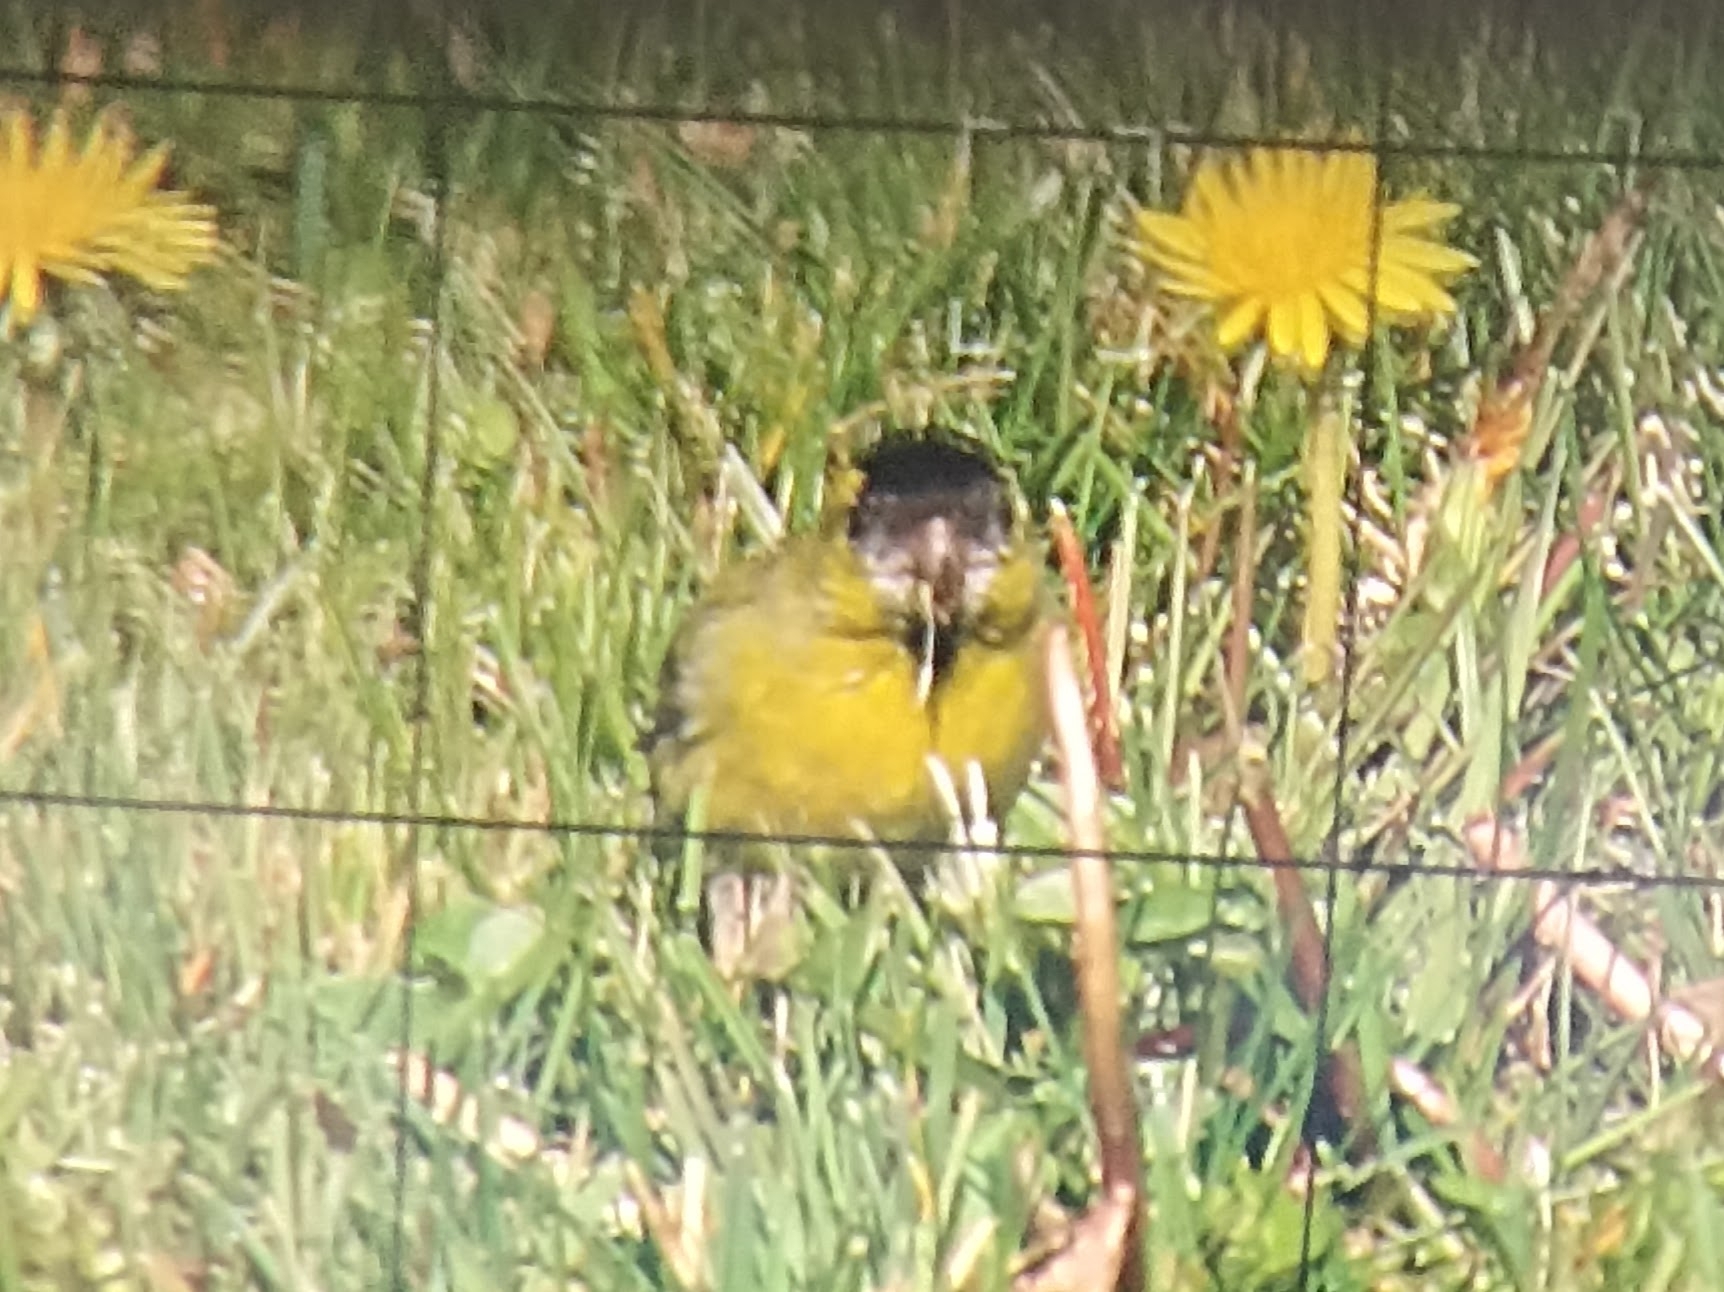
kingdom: Animalia
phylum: Chordata
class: Aves
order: Passeriformes
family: Fringillidae
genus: Spinus
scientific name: Spinus spinus
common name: Eurasian siskin
